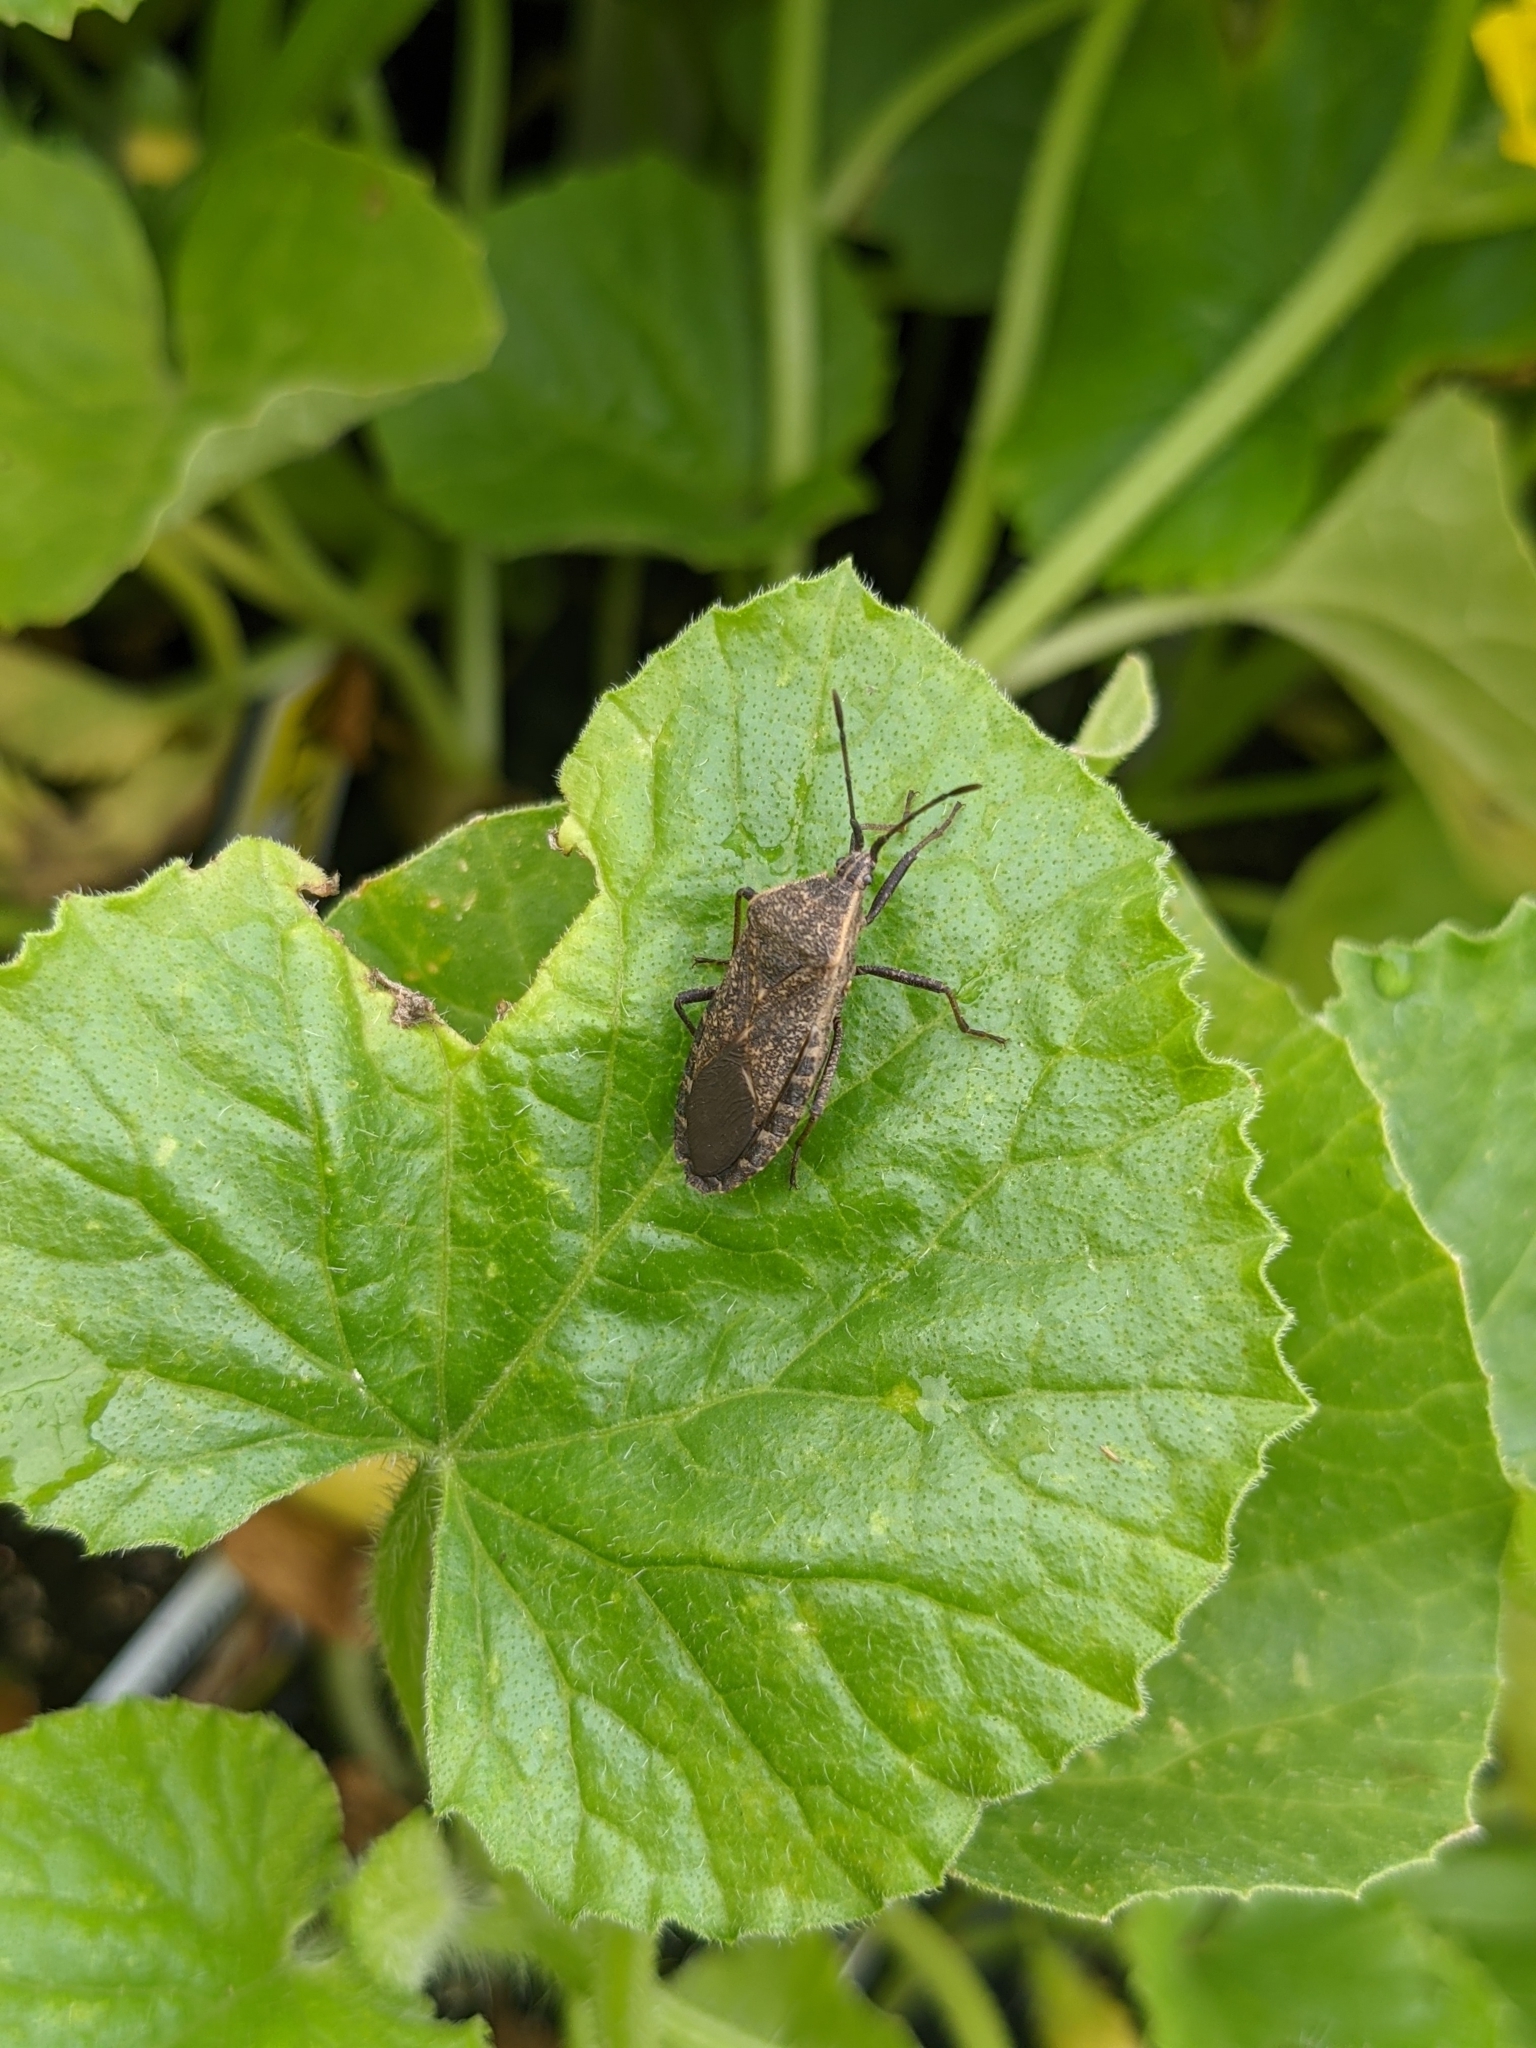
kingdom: Animalia
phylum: Arthropoda
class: Insecta
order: Hemiptera
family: Coreidae
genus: Anasa
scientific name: Anasa tristis
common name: Squash bug
